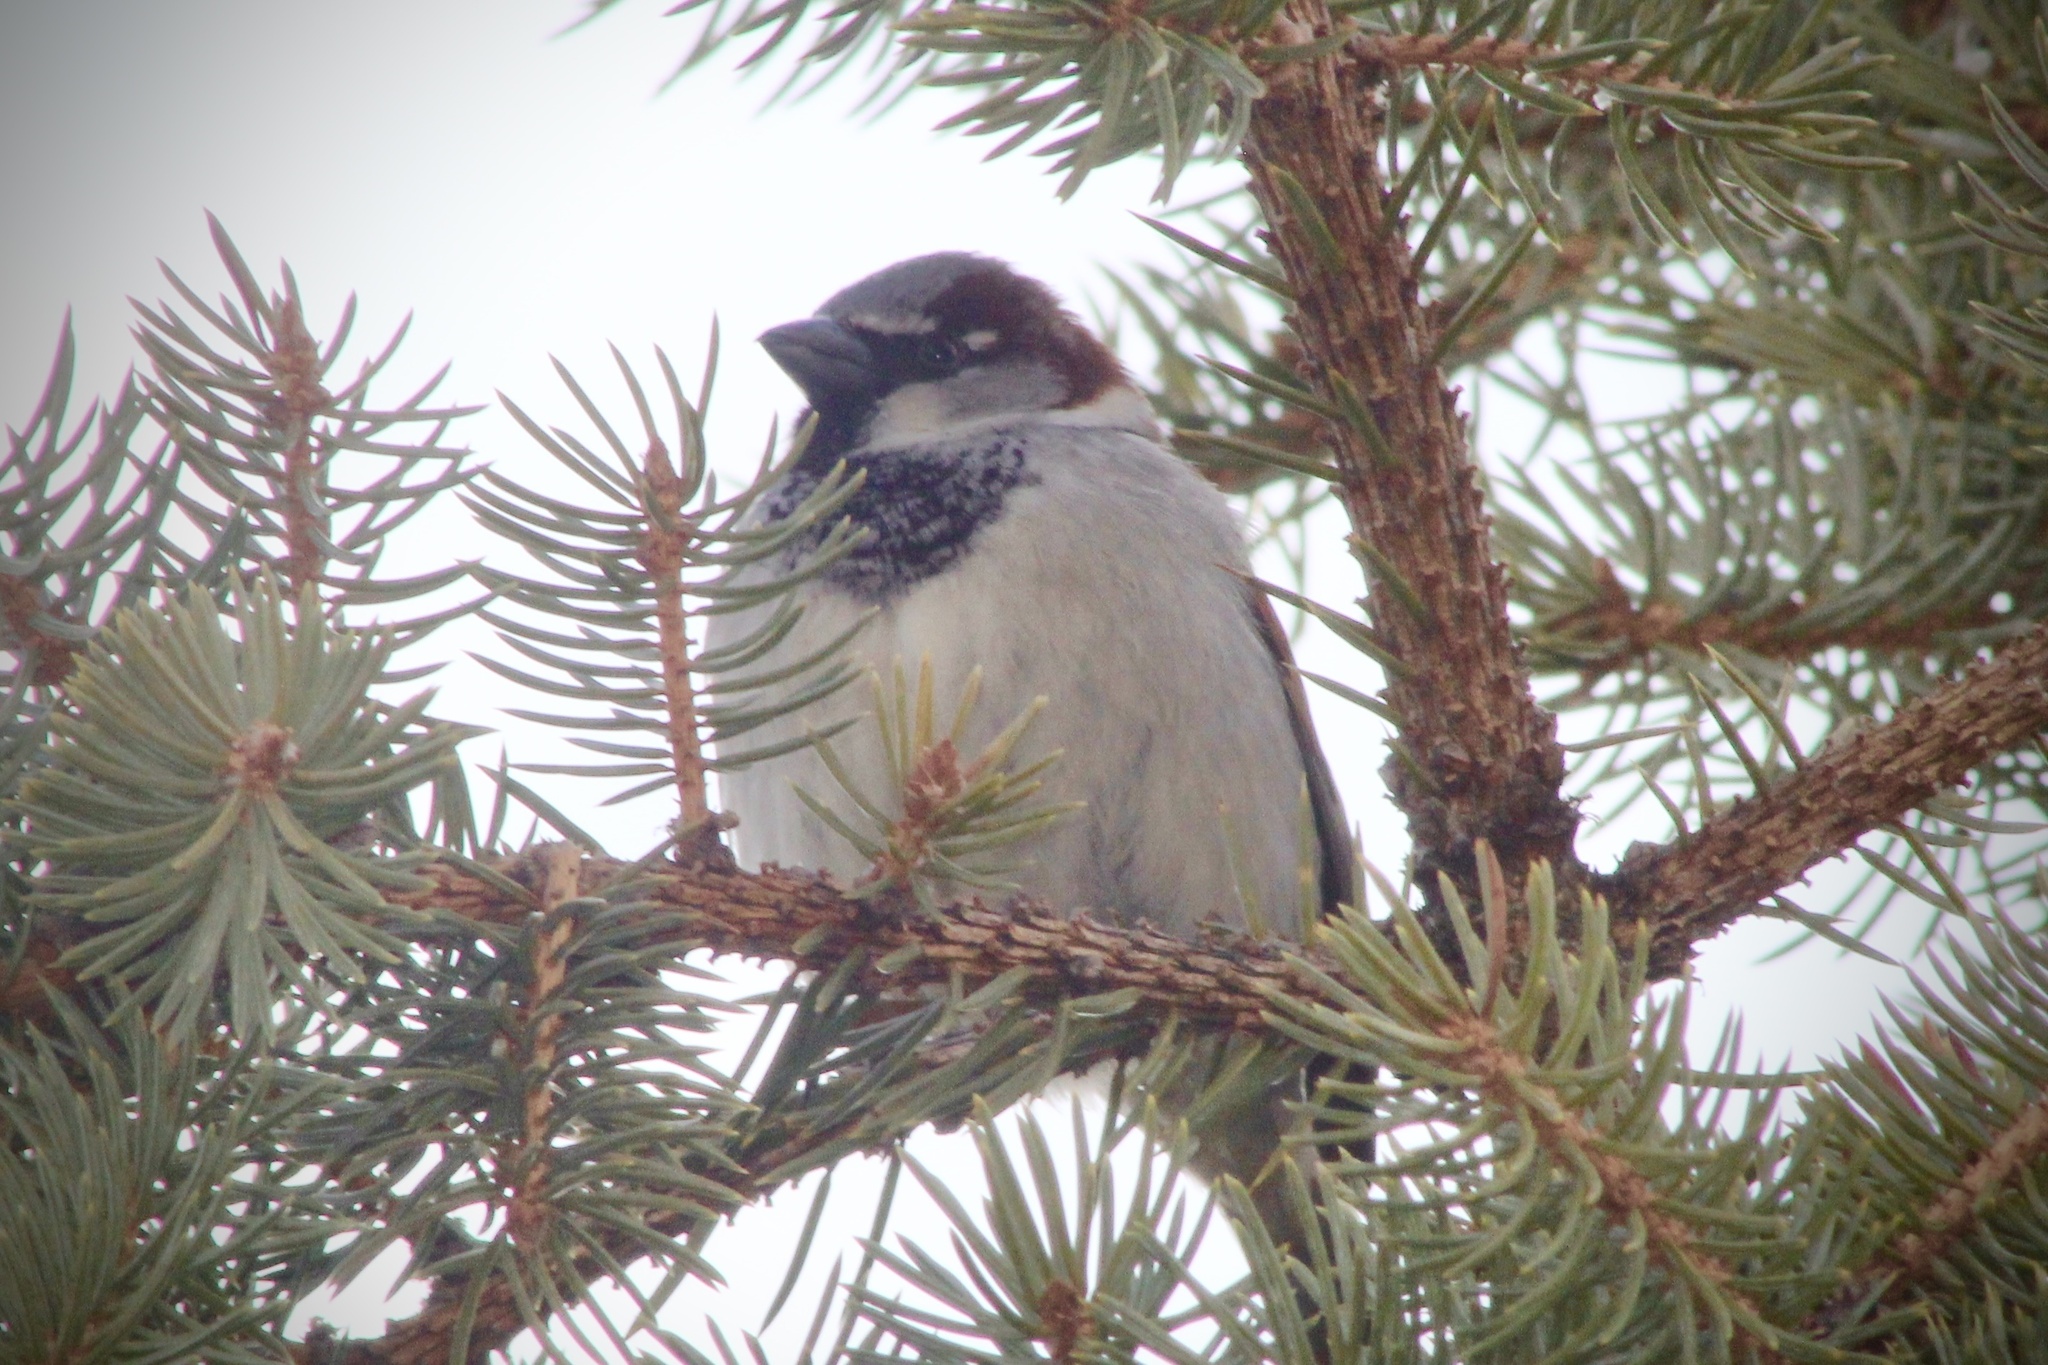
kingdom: Animalia
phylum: Chordata
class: Aves
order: Passeriformes
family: Passeridae
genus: Passer
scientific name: Passer domesticus
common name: House sparrow
